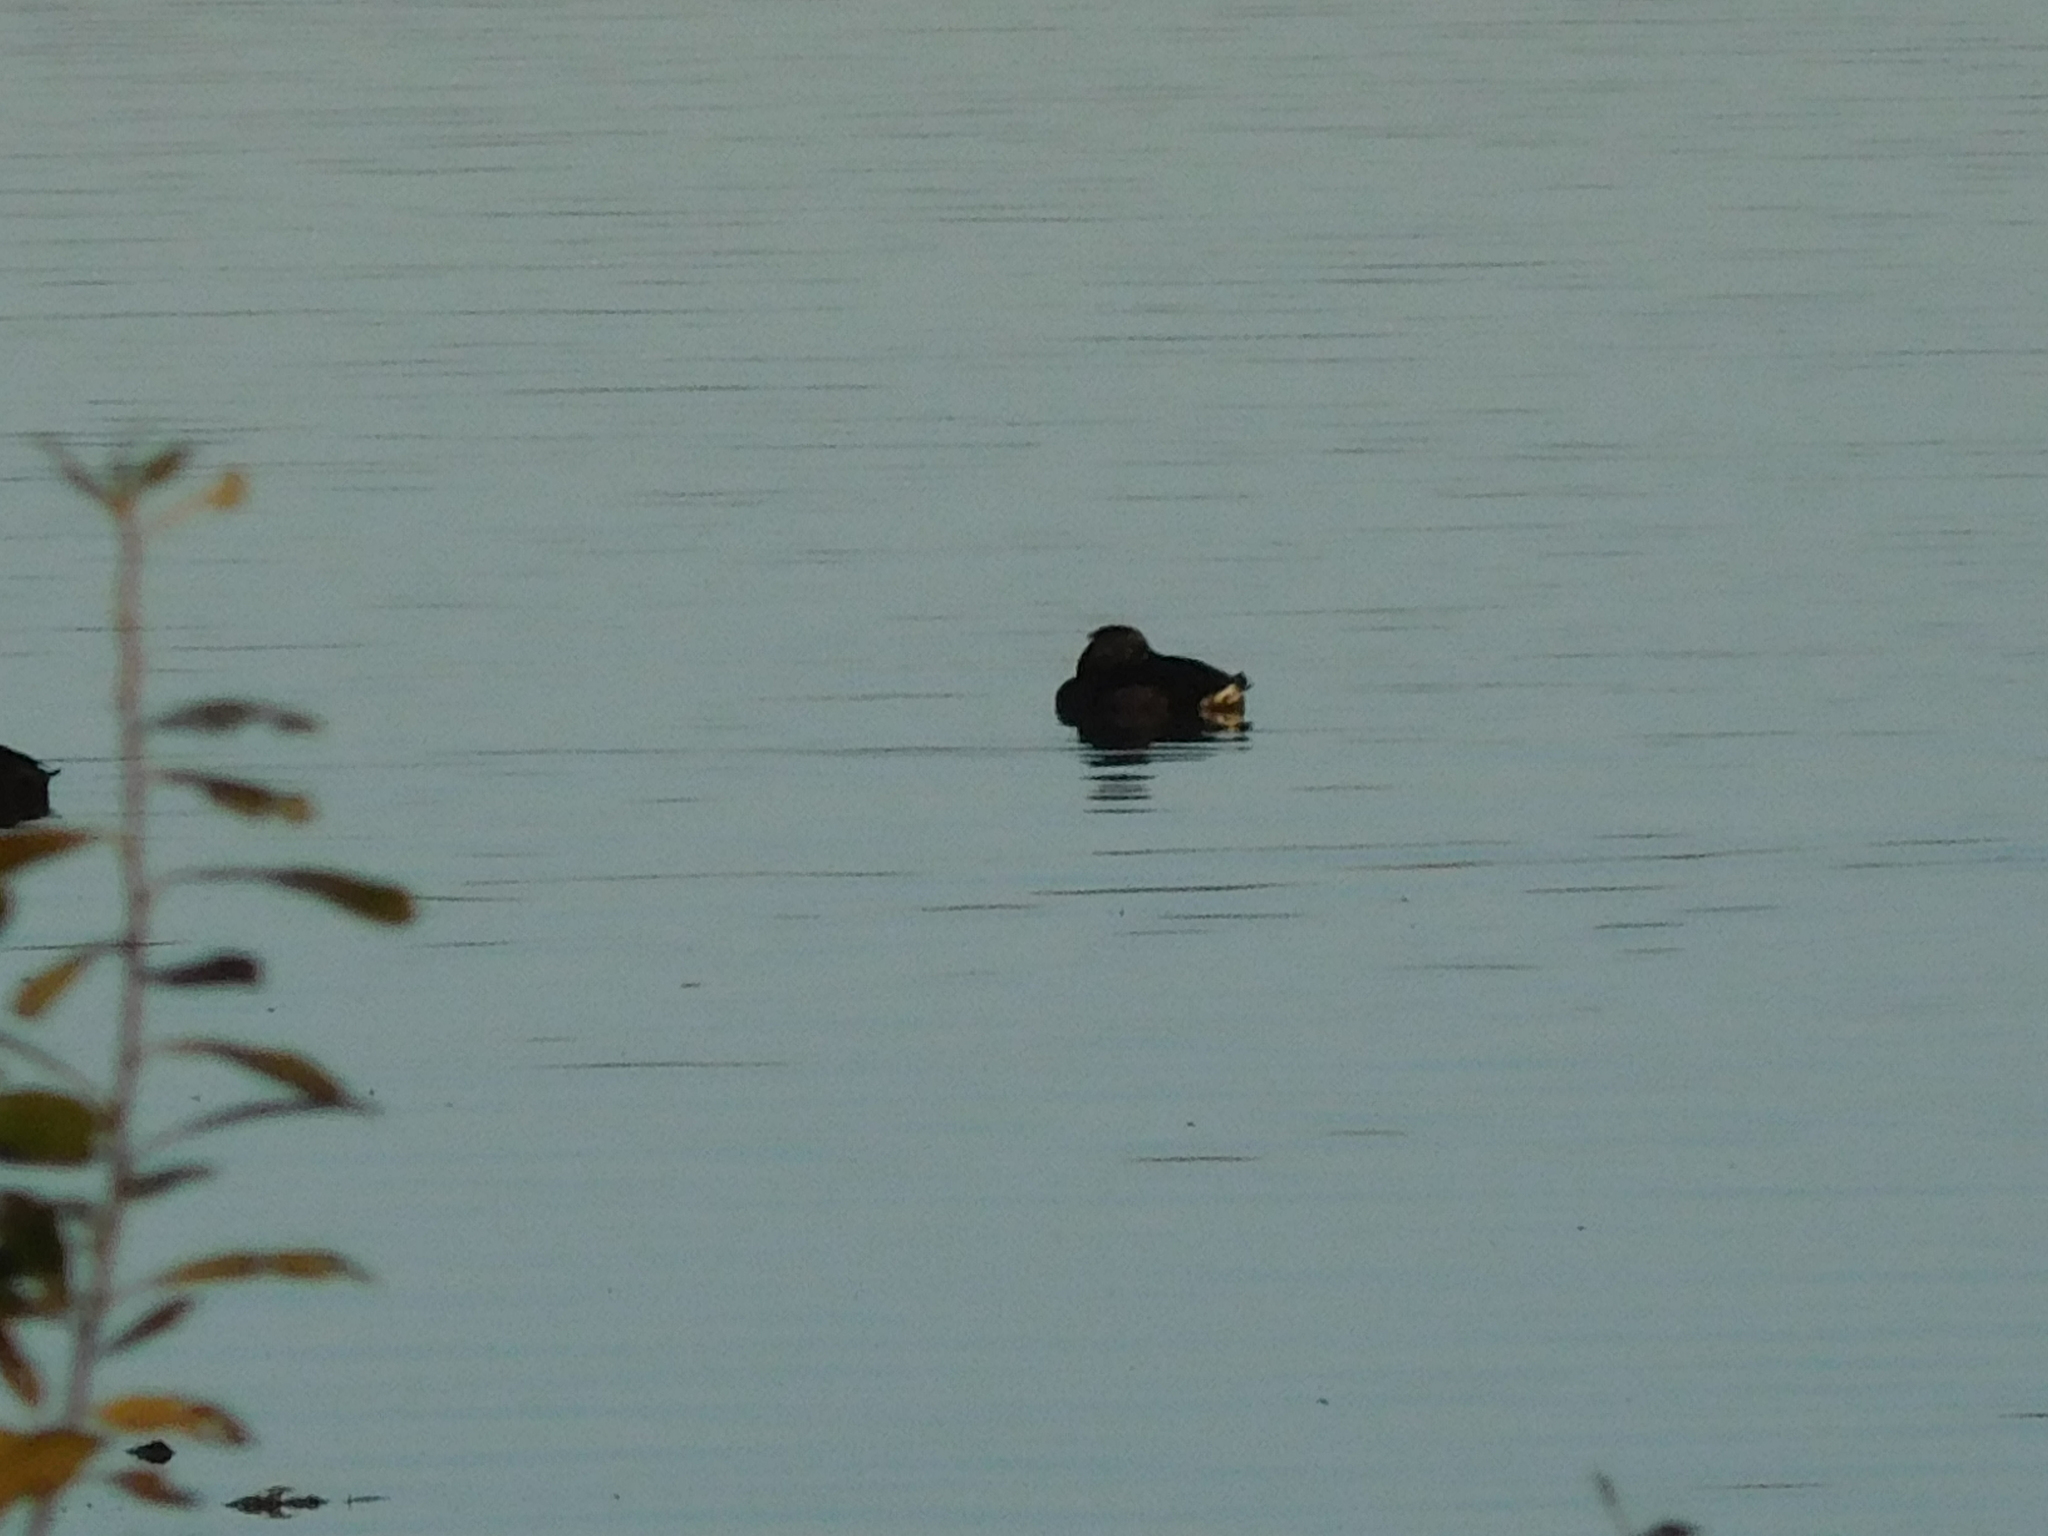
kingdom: Animalia
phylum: Chordata
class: Aves
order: Anseriformes
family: Anatidae
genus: Aythya
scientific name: Aythya fuligula
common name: Tufted duck
